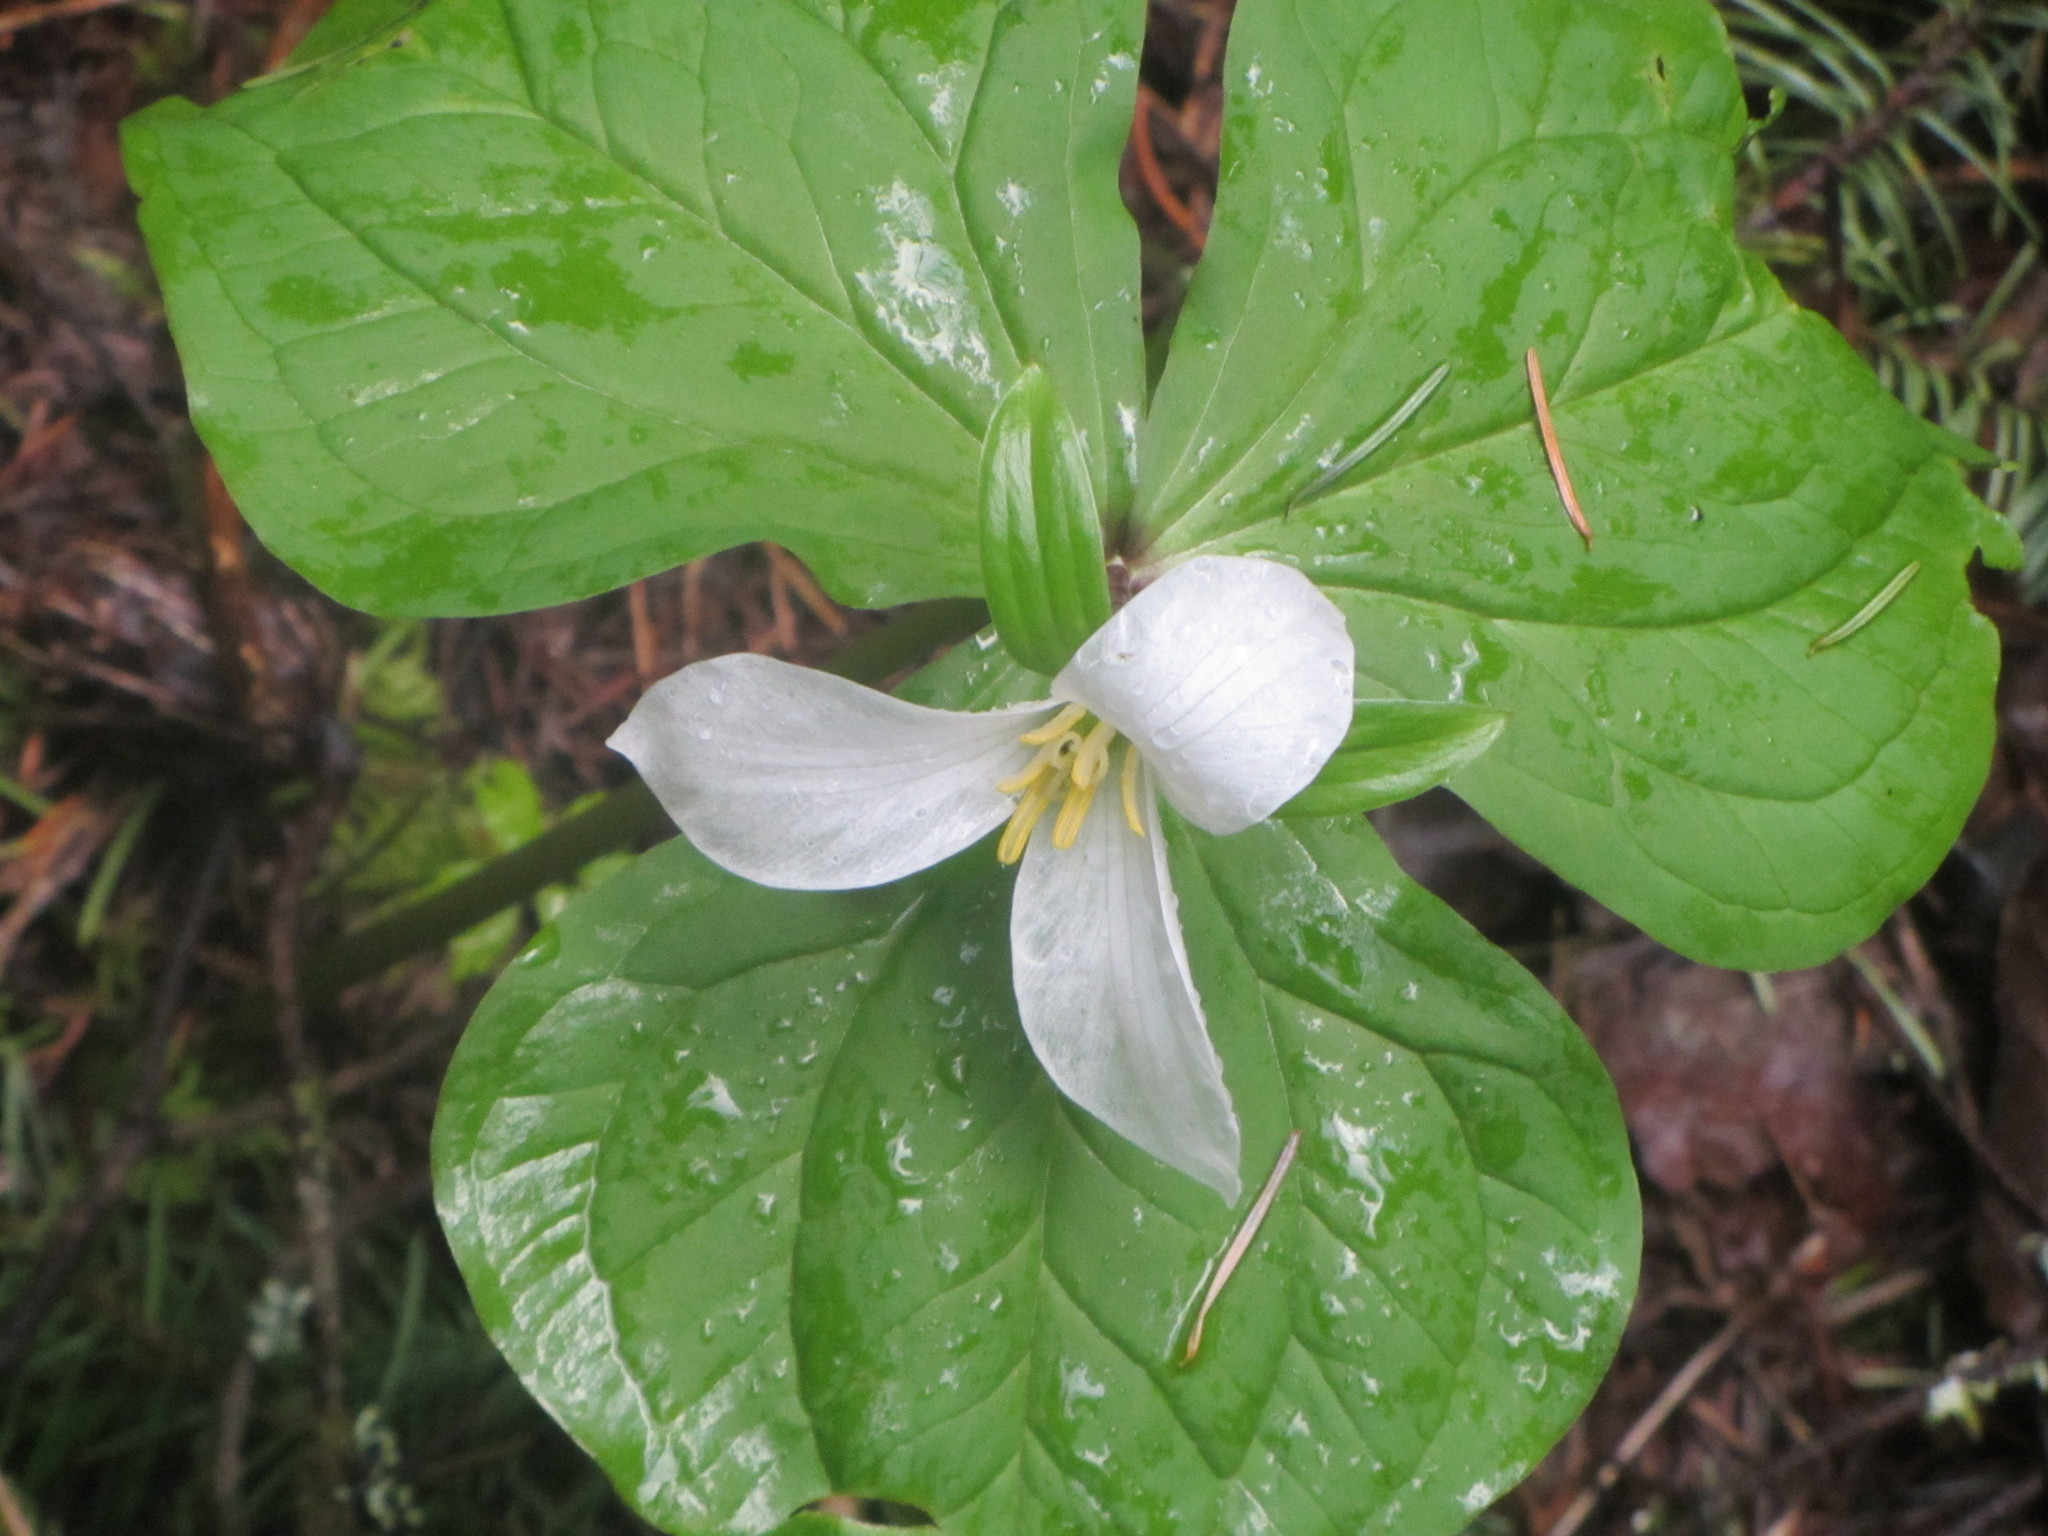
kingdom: Plantae
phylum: Tracheophyta
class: Liliopsida
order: Liliales
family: Melanthiaceae
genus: Trillium
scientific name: Trillium ovatum
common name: Pacific trillium
